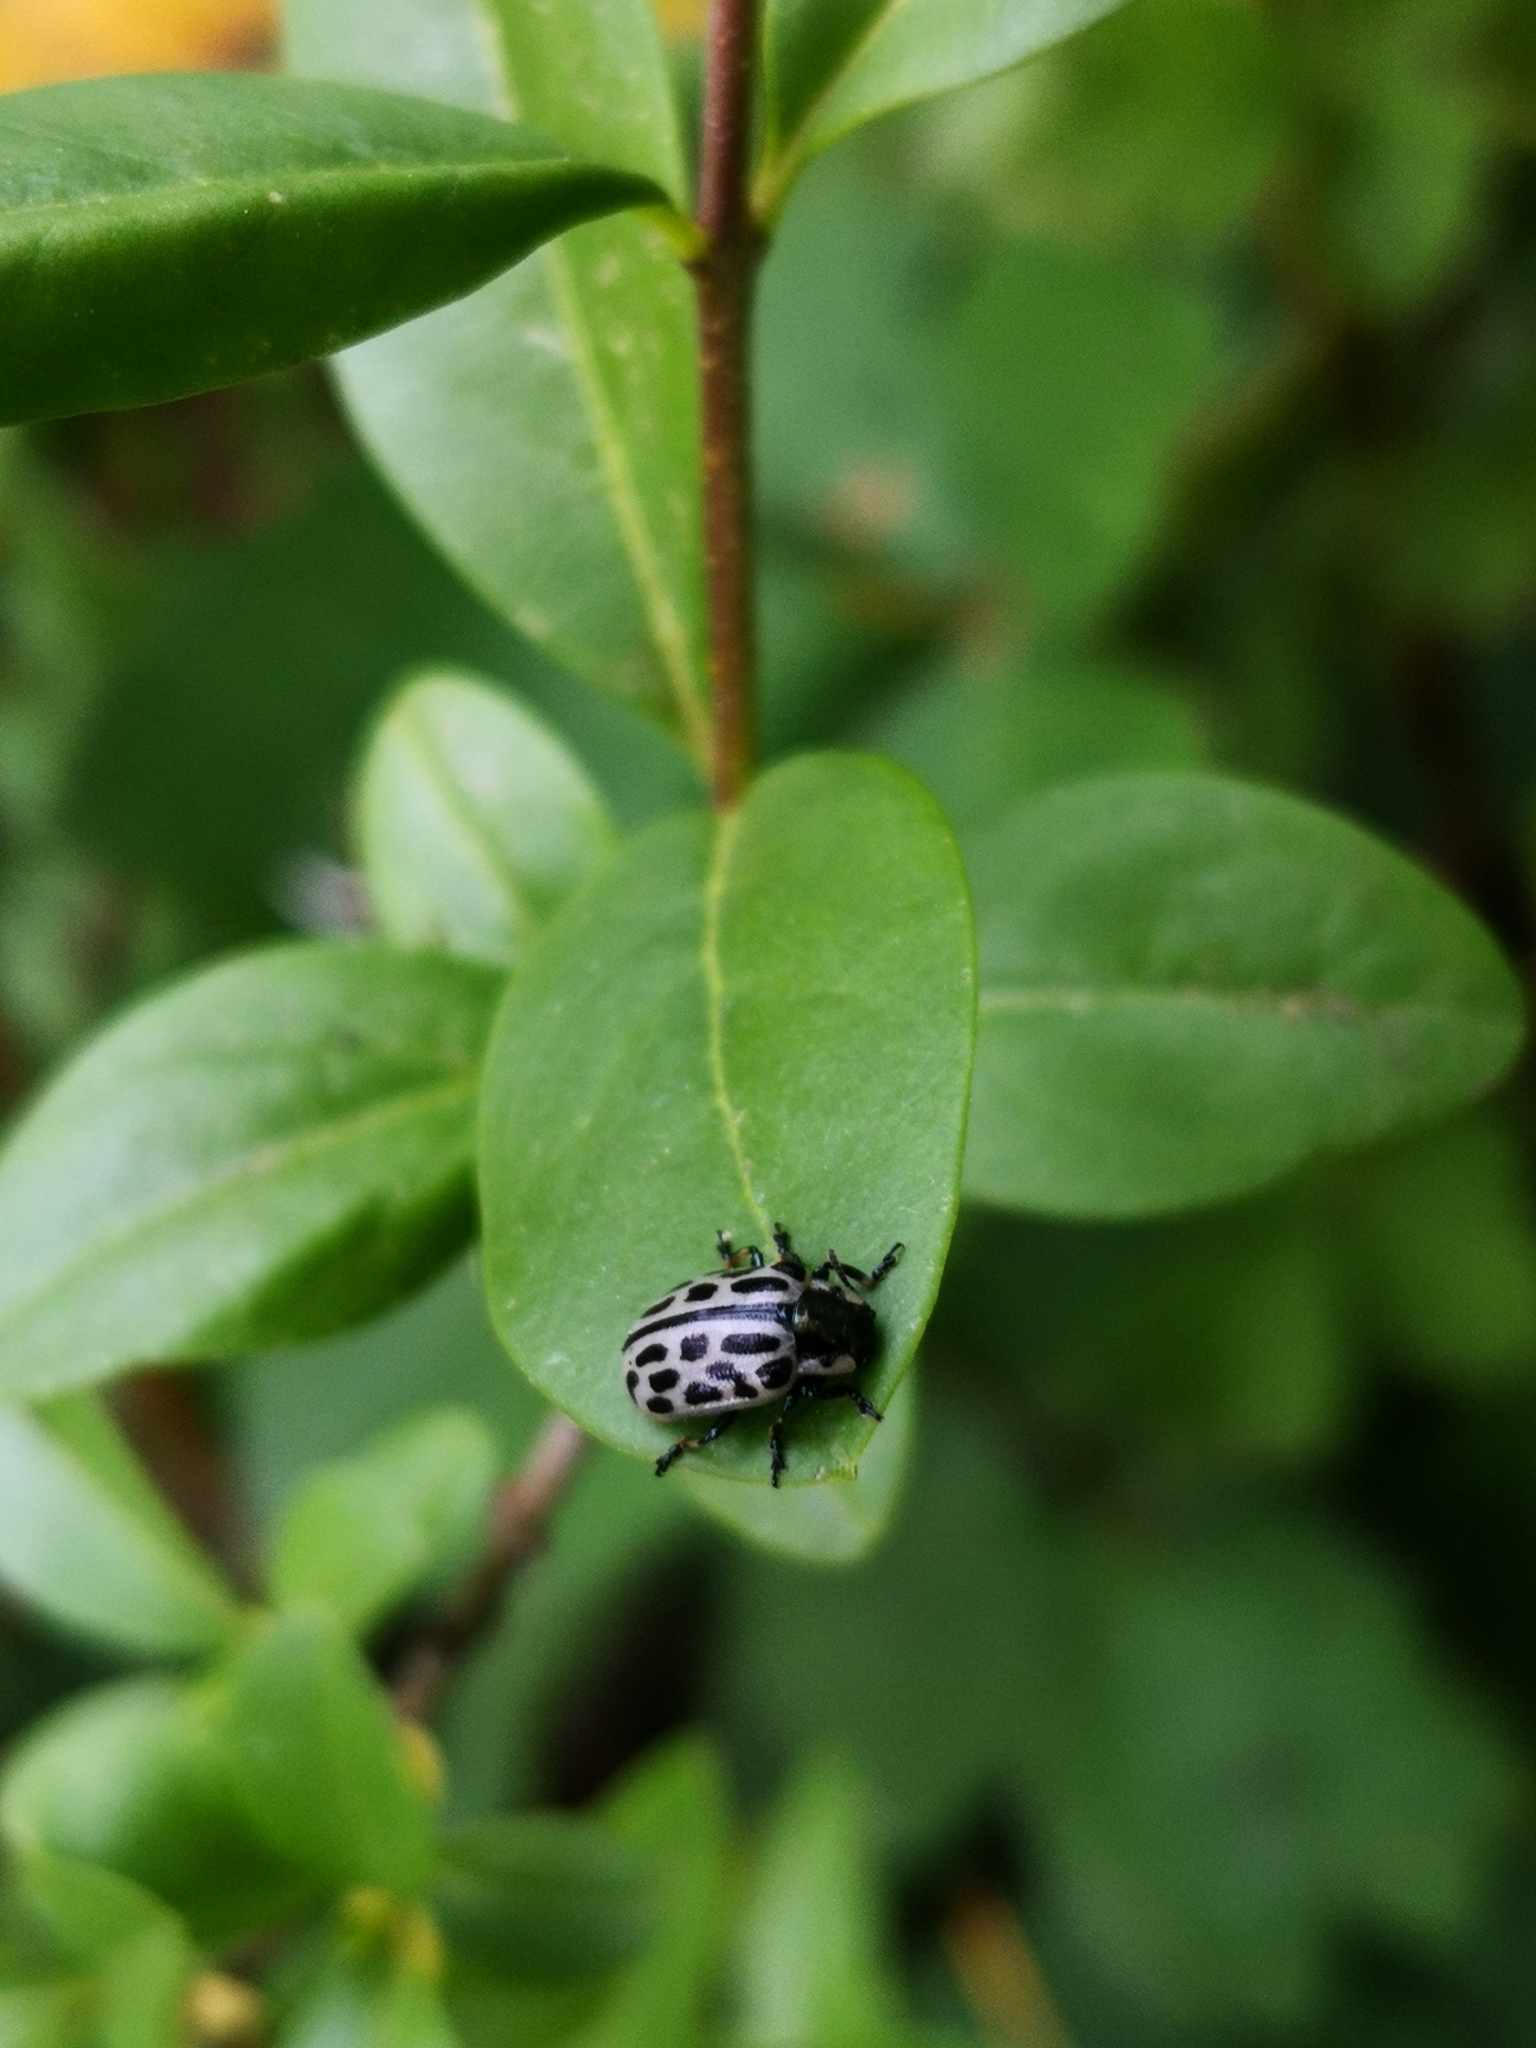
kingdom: Animalia
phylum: Arthropoda
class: Insecta
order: Coleoptera
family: Chrysomelidae
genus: Chrysomela
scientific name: Chrysomela vigintipunctata
